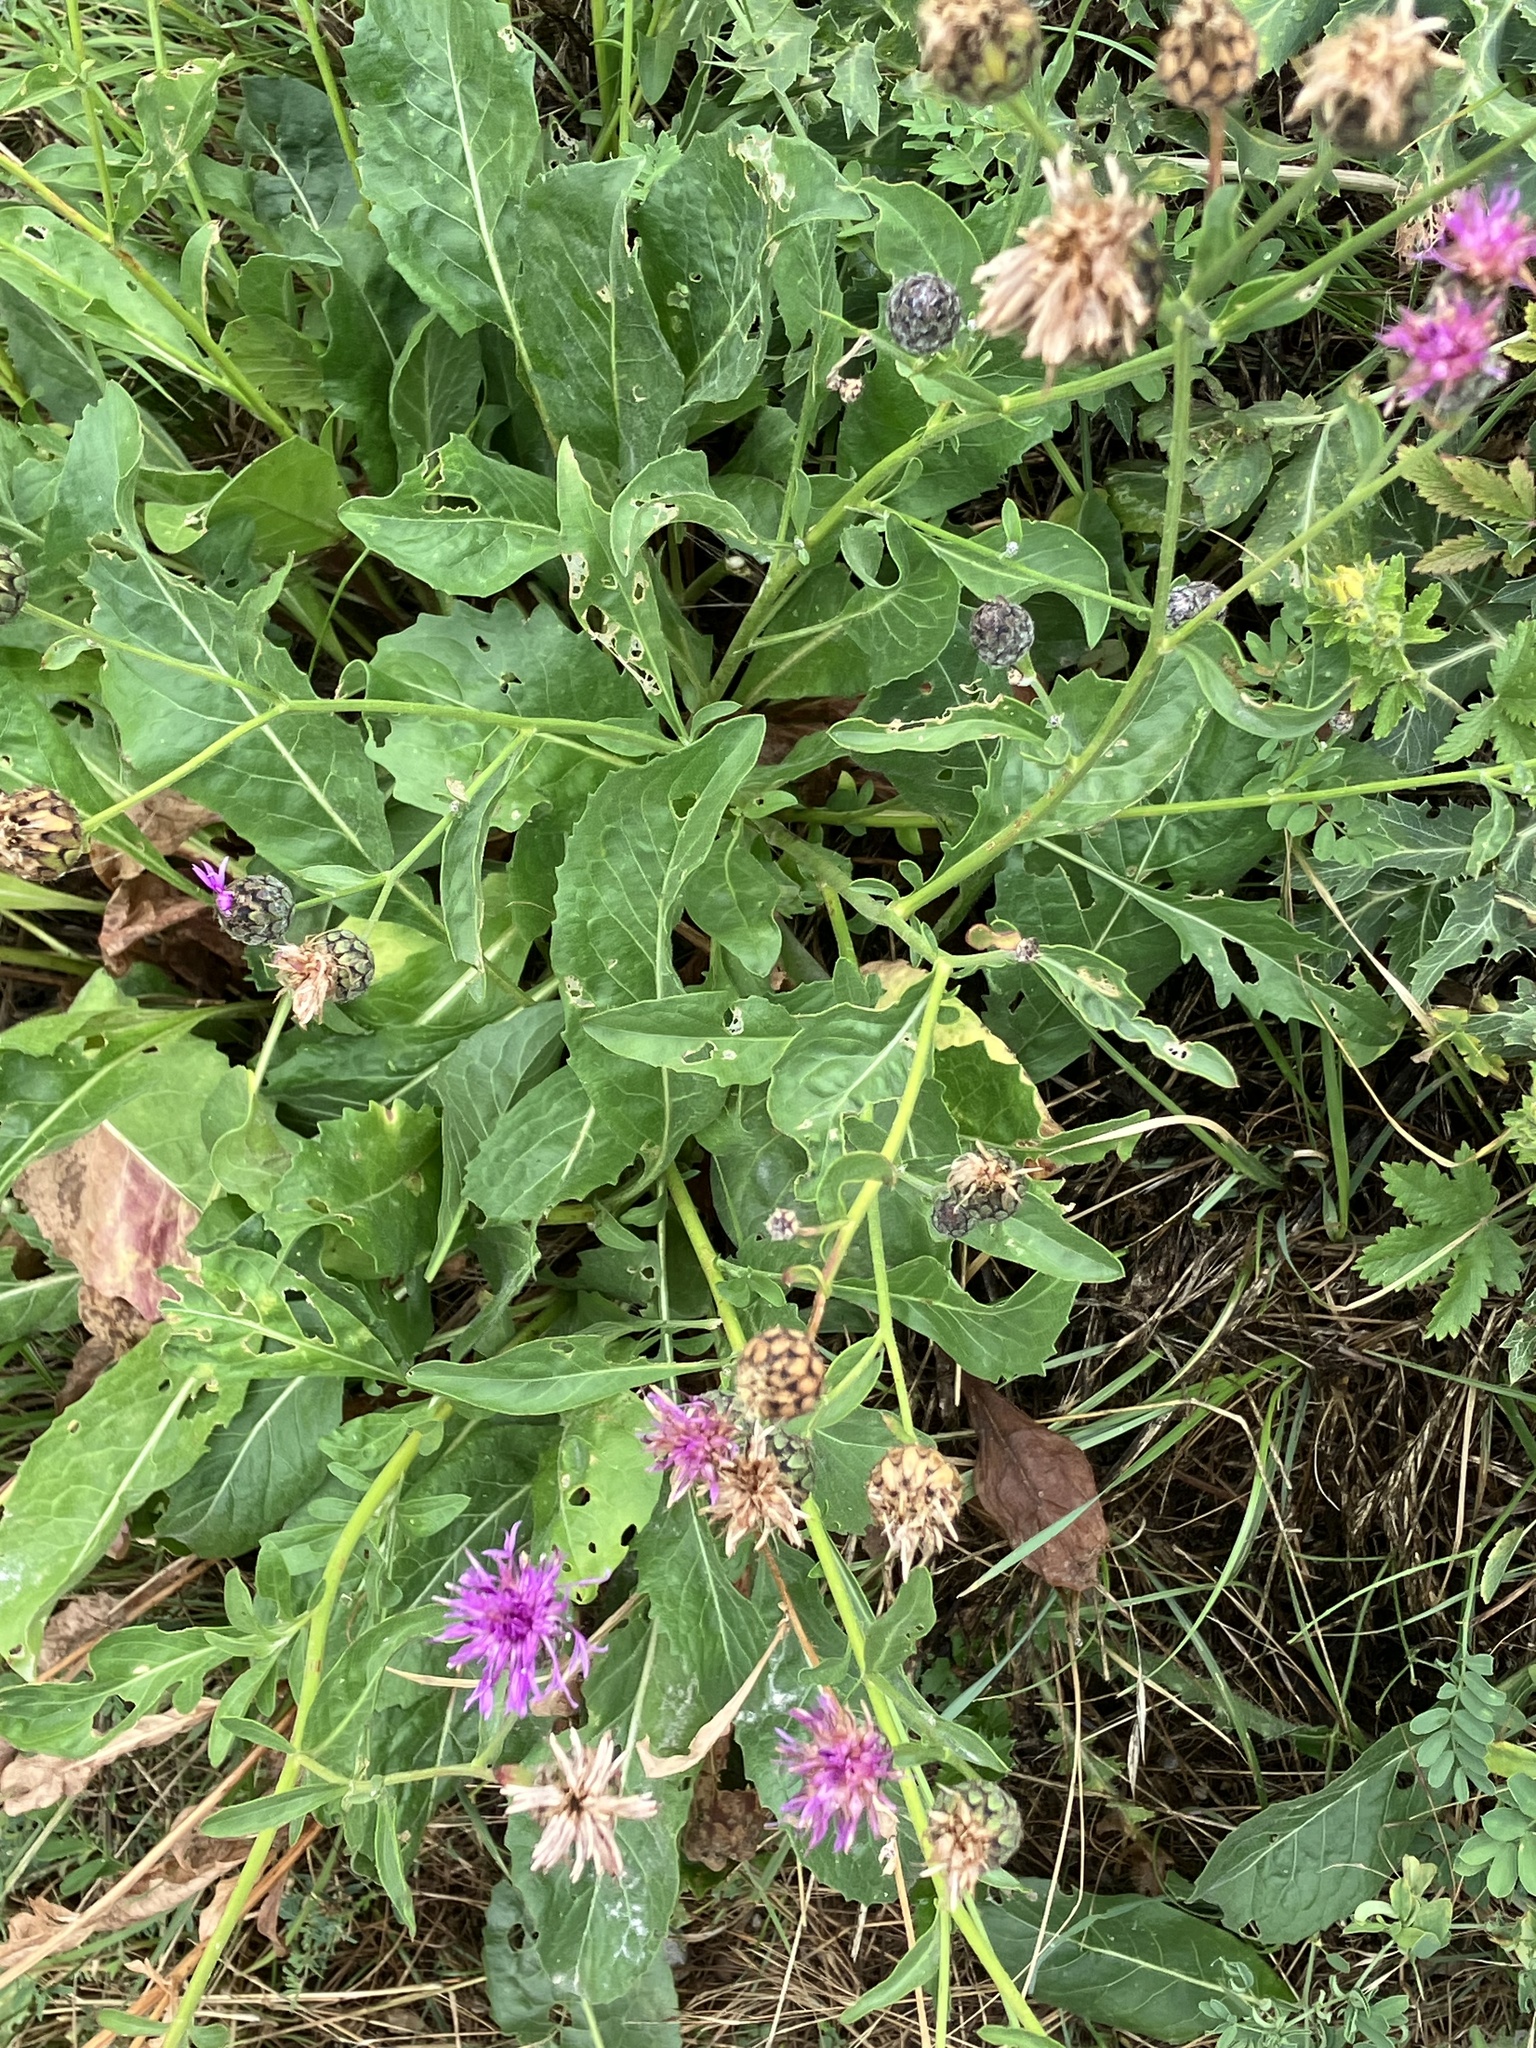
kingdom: Plantae
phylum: Tracheophyta
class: Magnoliopsida
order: Asterales
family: Asteraceae
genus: Centaurea
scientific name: Centaurea scabiosa
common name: Greater knapweed
